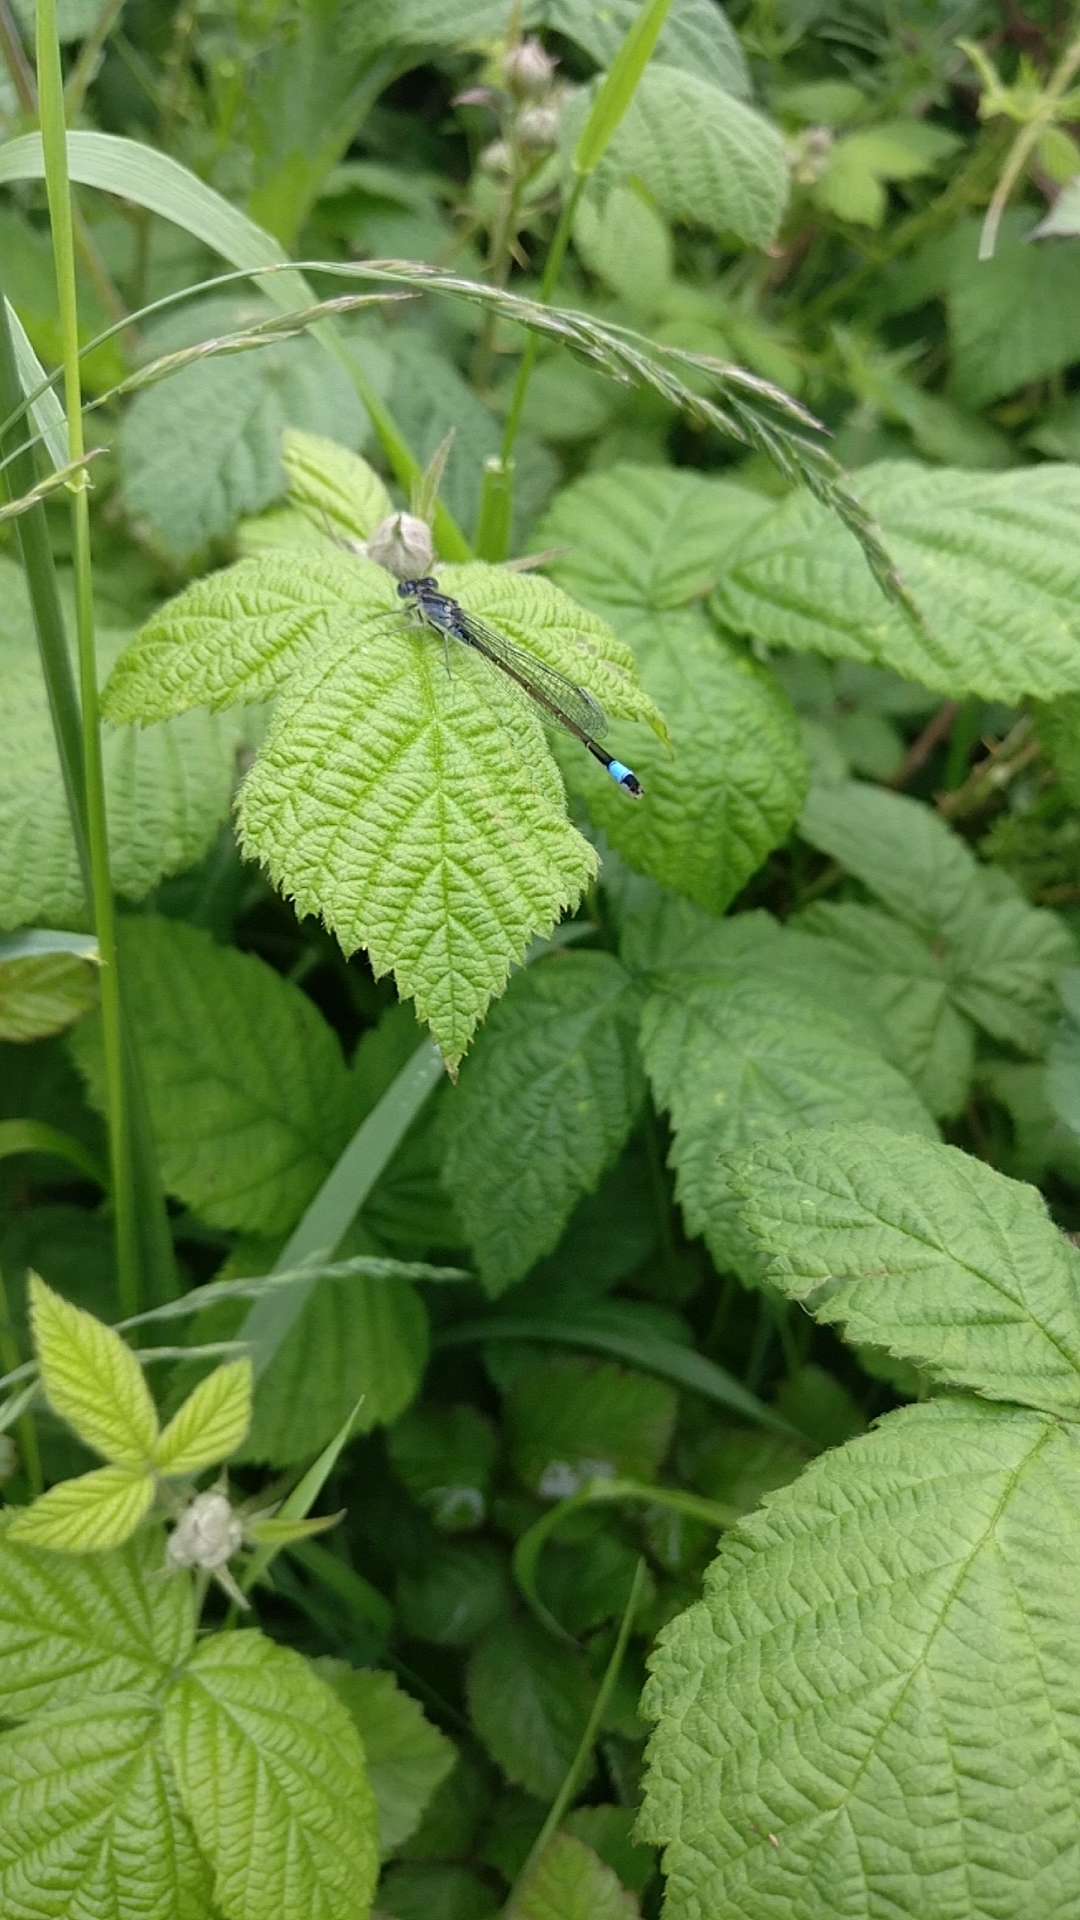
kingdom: Animalia
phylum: Arthropoda
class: Insecta
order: Odonata
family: Coenagrionidae
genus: Ischnura
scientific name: Ischnura elegans
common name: Blue-tailed damselfly
